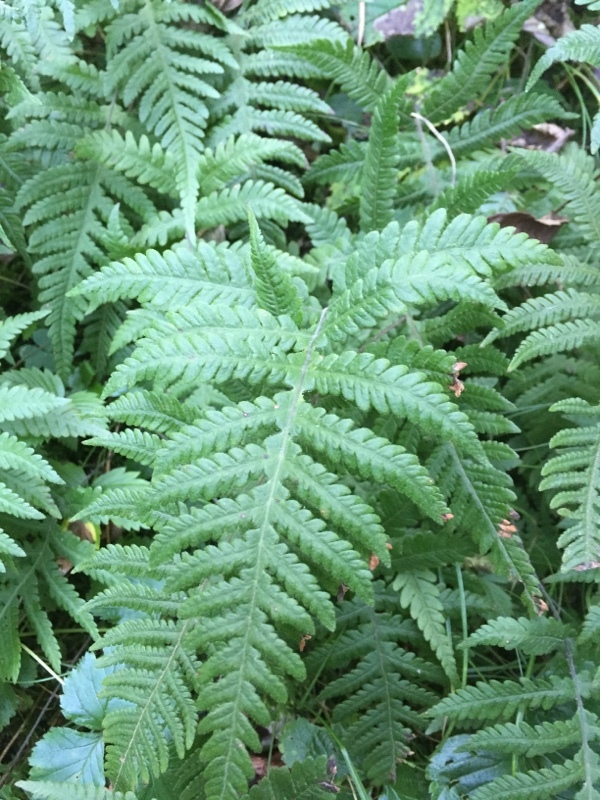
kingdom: Plantae
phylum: Tracheophyta
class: Polypodiopsida
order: Polypodiales
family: Thelypteridaceae
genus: Phegopteris
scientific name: Phegopteris connectilis
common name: Beech fern
